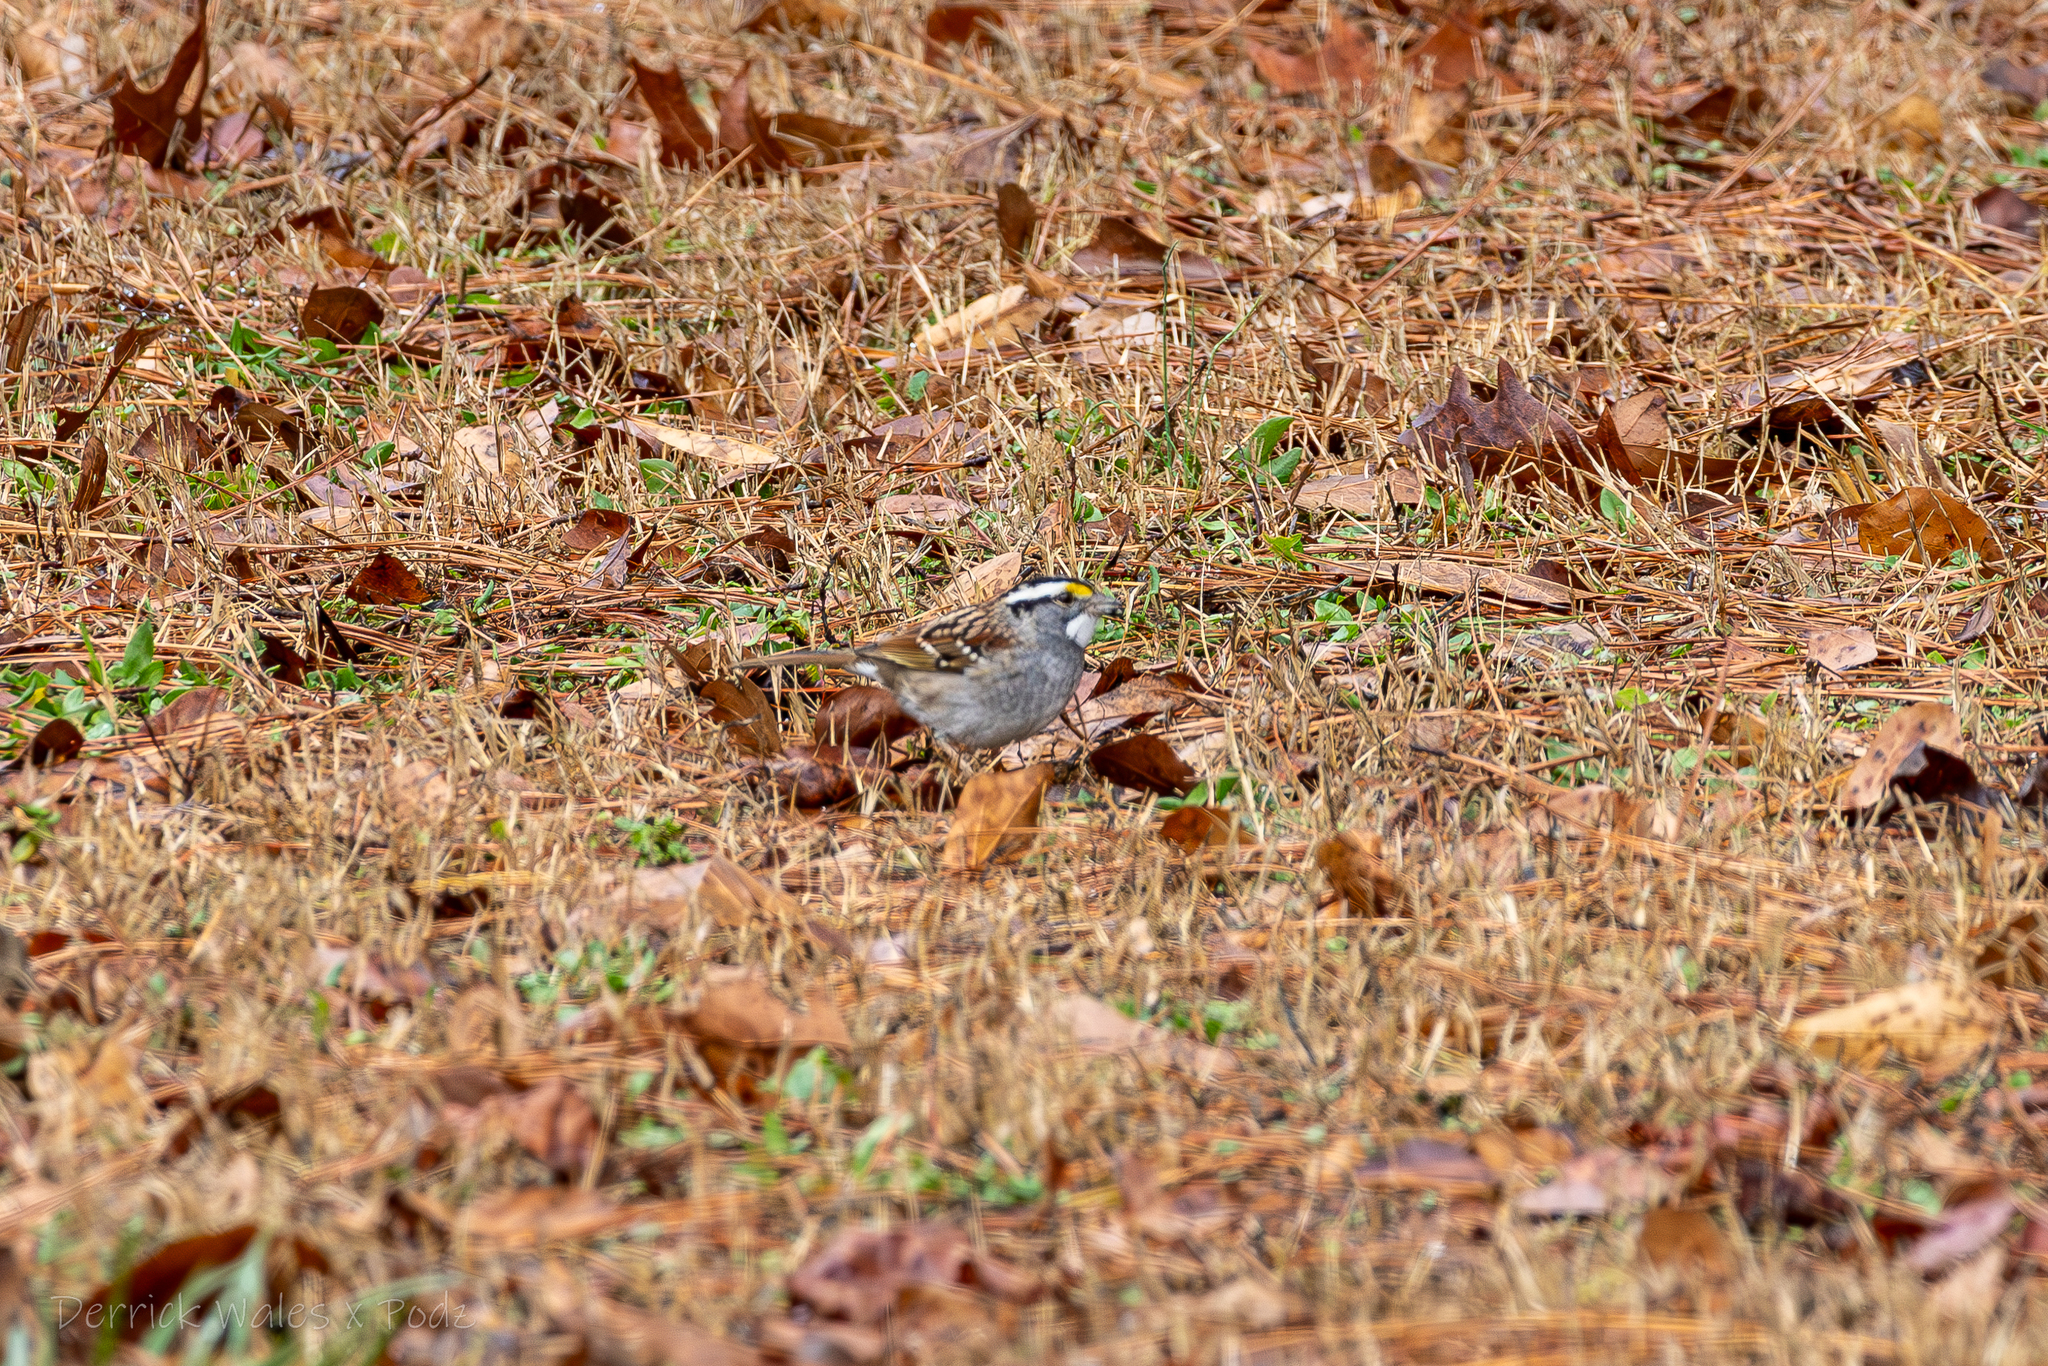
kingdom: Animalia
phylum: Chordata
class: Aves
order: Passeriformes
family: Passerellidae
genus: Zonotrichia
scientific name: Zonotrichia albicollis
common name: White-throated sparrow
